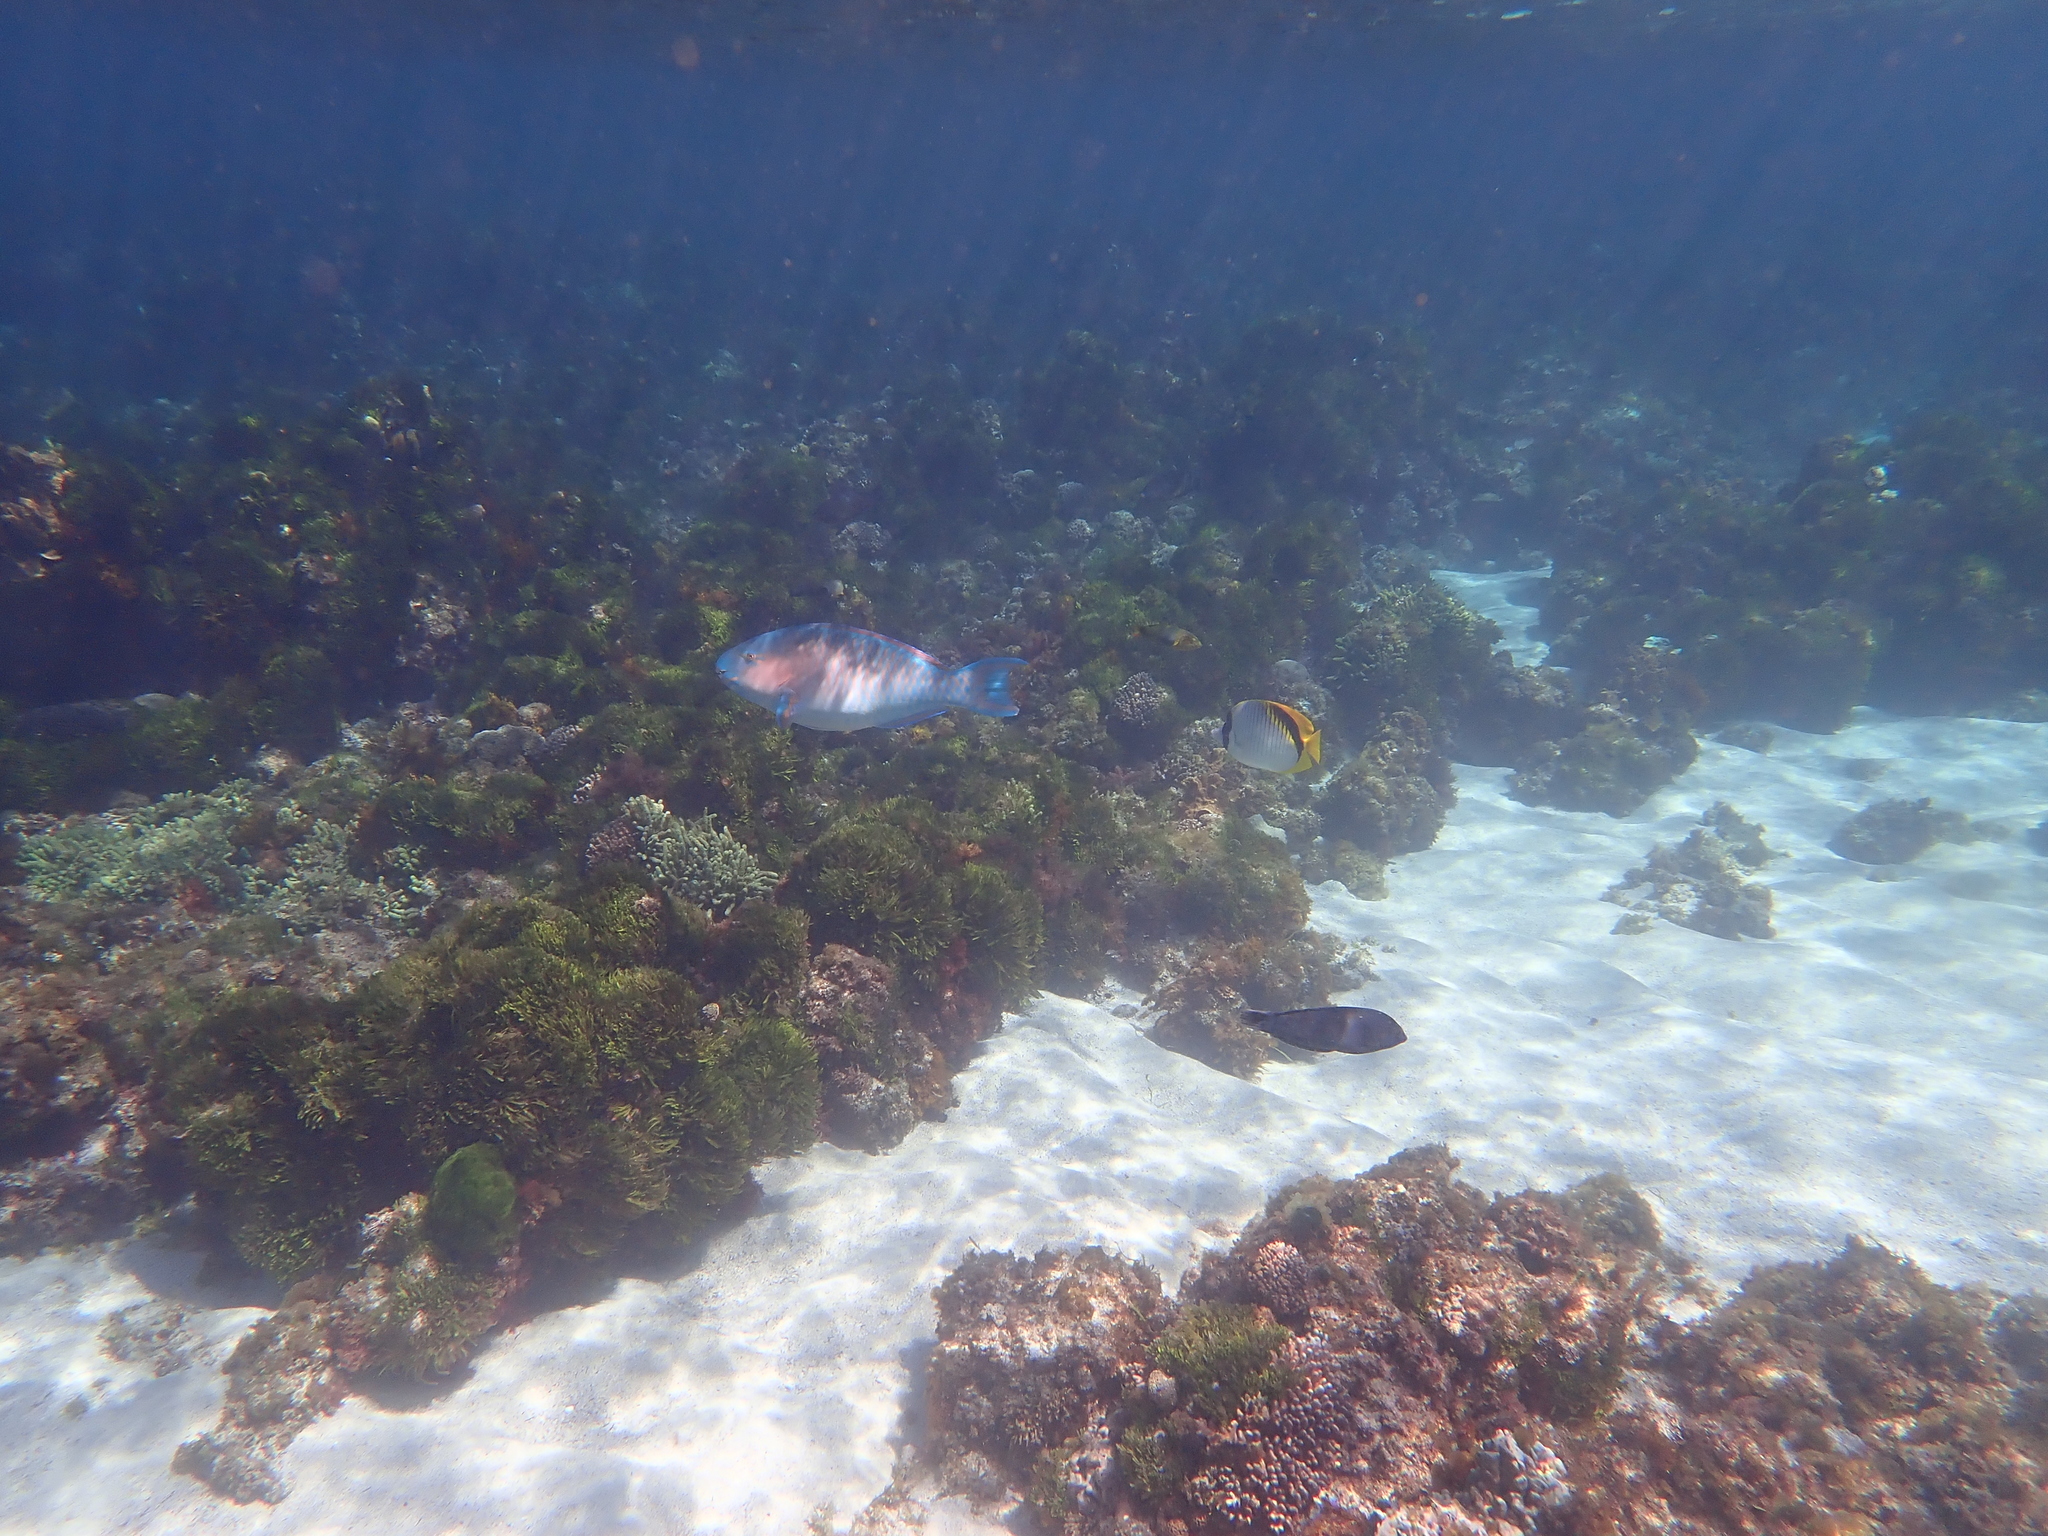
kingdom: Animalia
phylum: Chordata
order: Perciformes
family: Scaridae
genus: Scarus
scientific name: Scarus ghobban
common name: Blue-barred parrotfish
